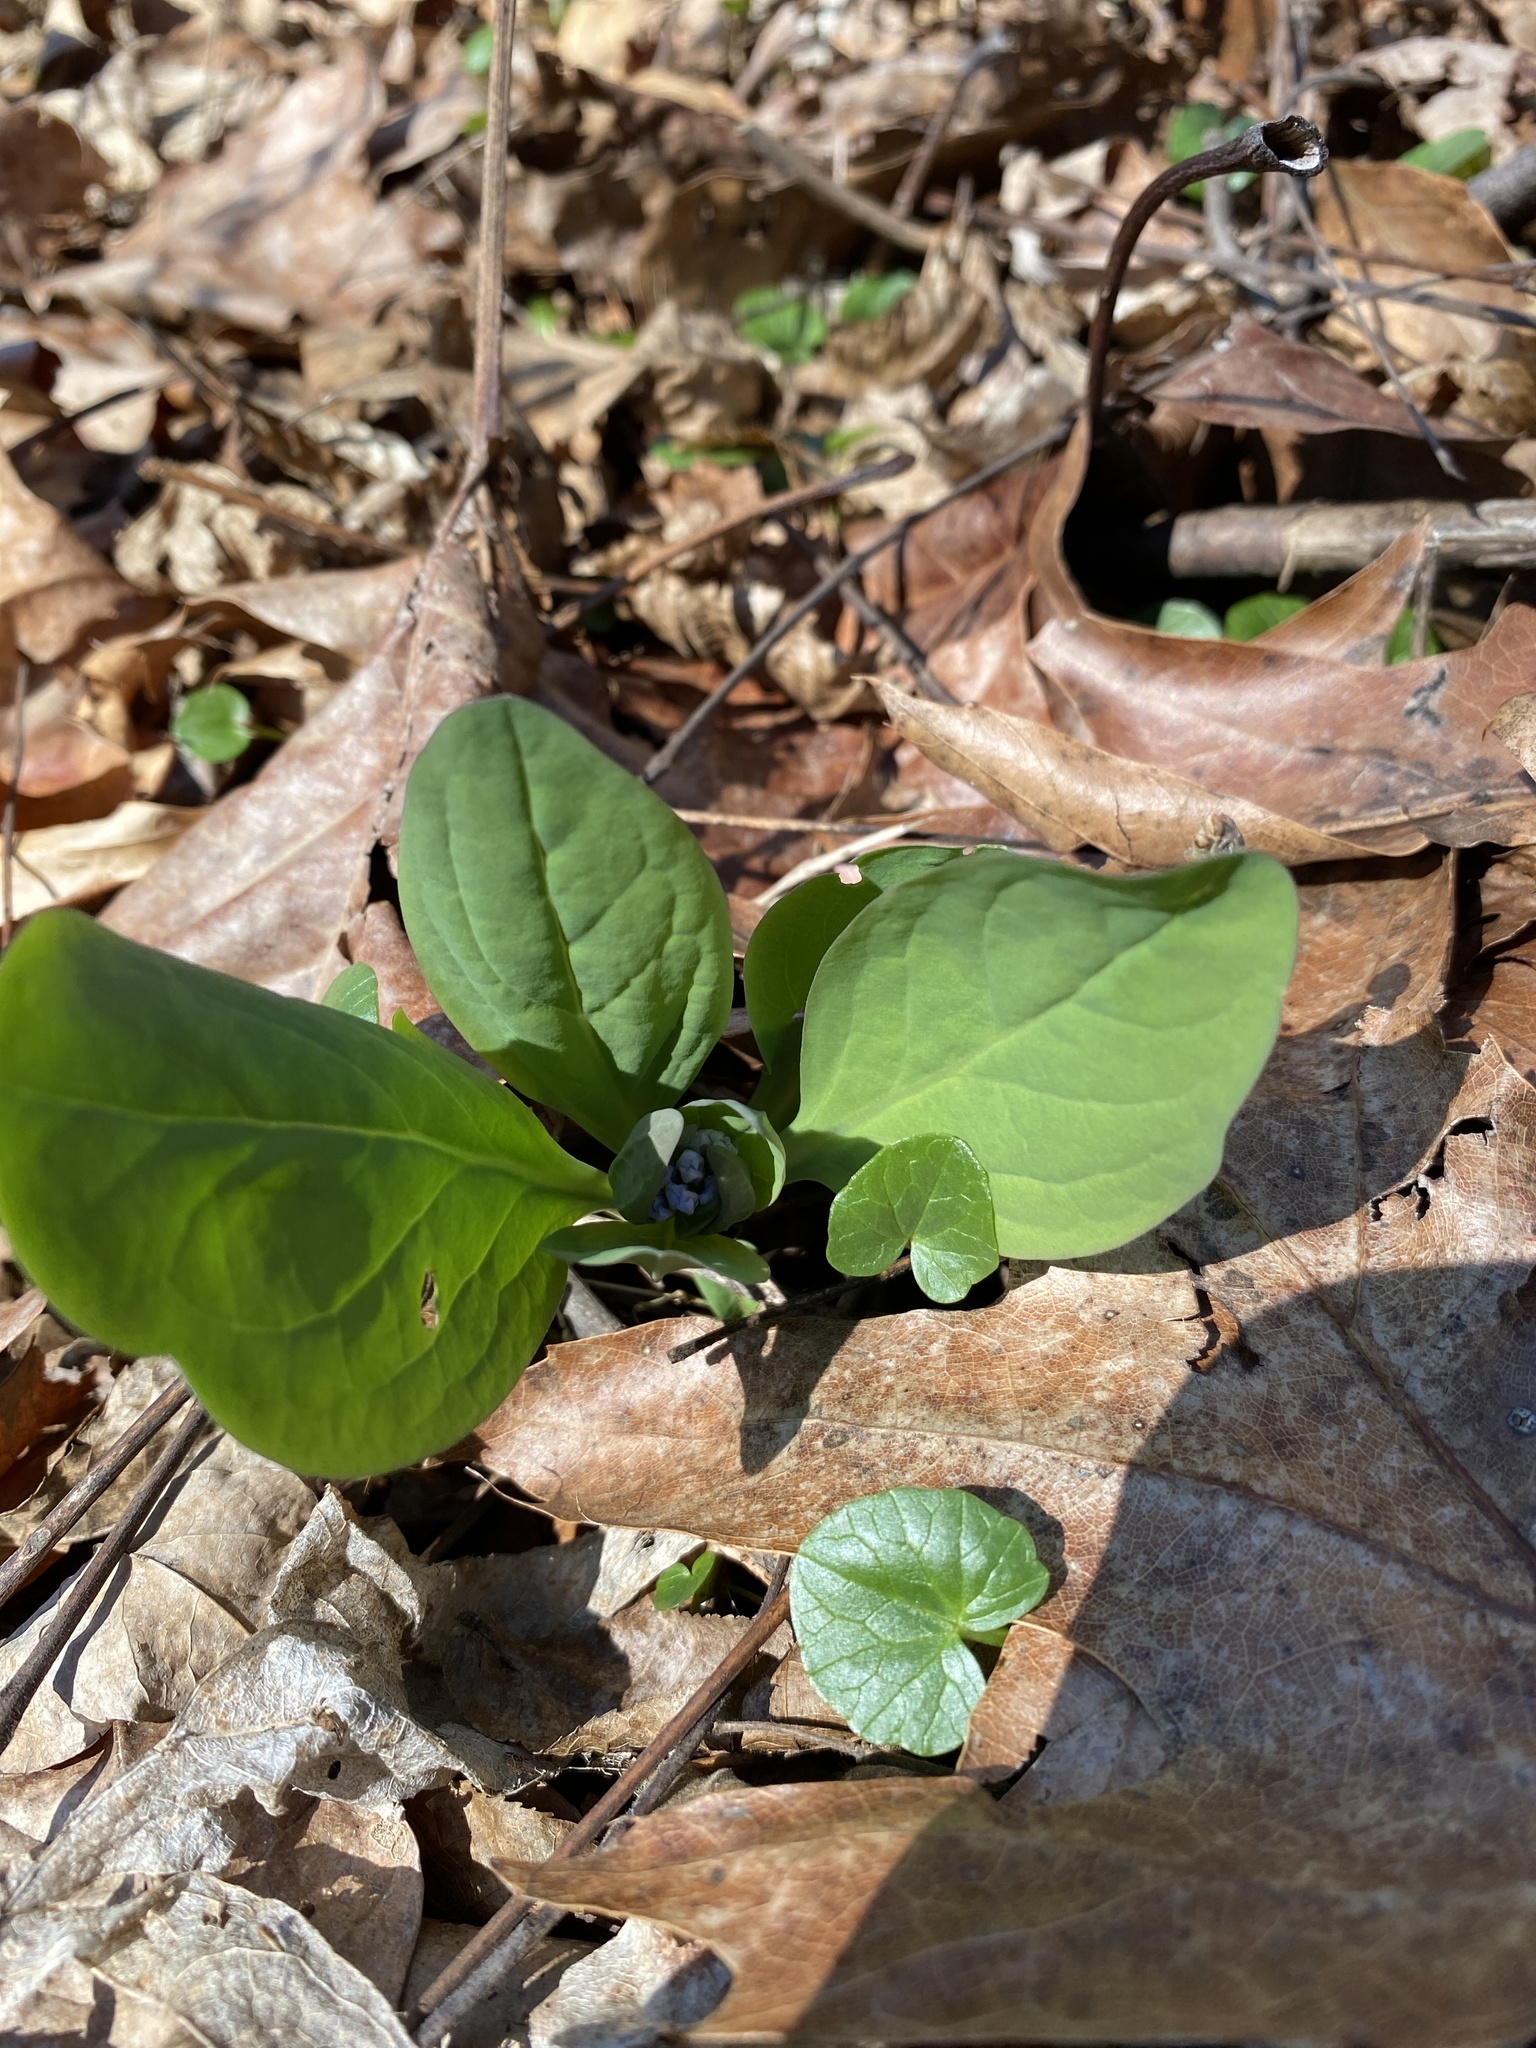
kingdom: Plantae
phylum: Tracheophyta
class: Magnoliopsida
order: Boraginales
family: Boraginaceae
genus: Mertensia
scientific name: Mertensia virginica
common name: Virginia bluebells
